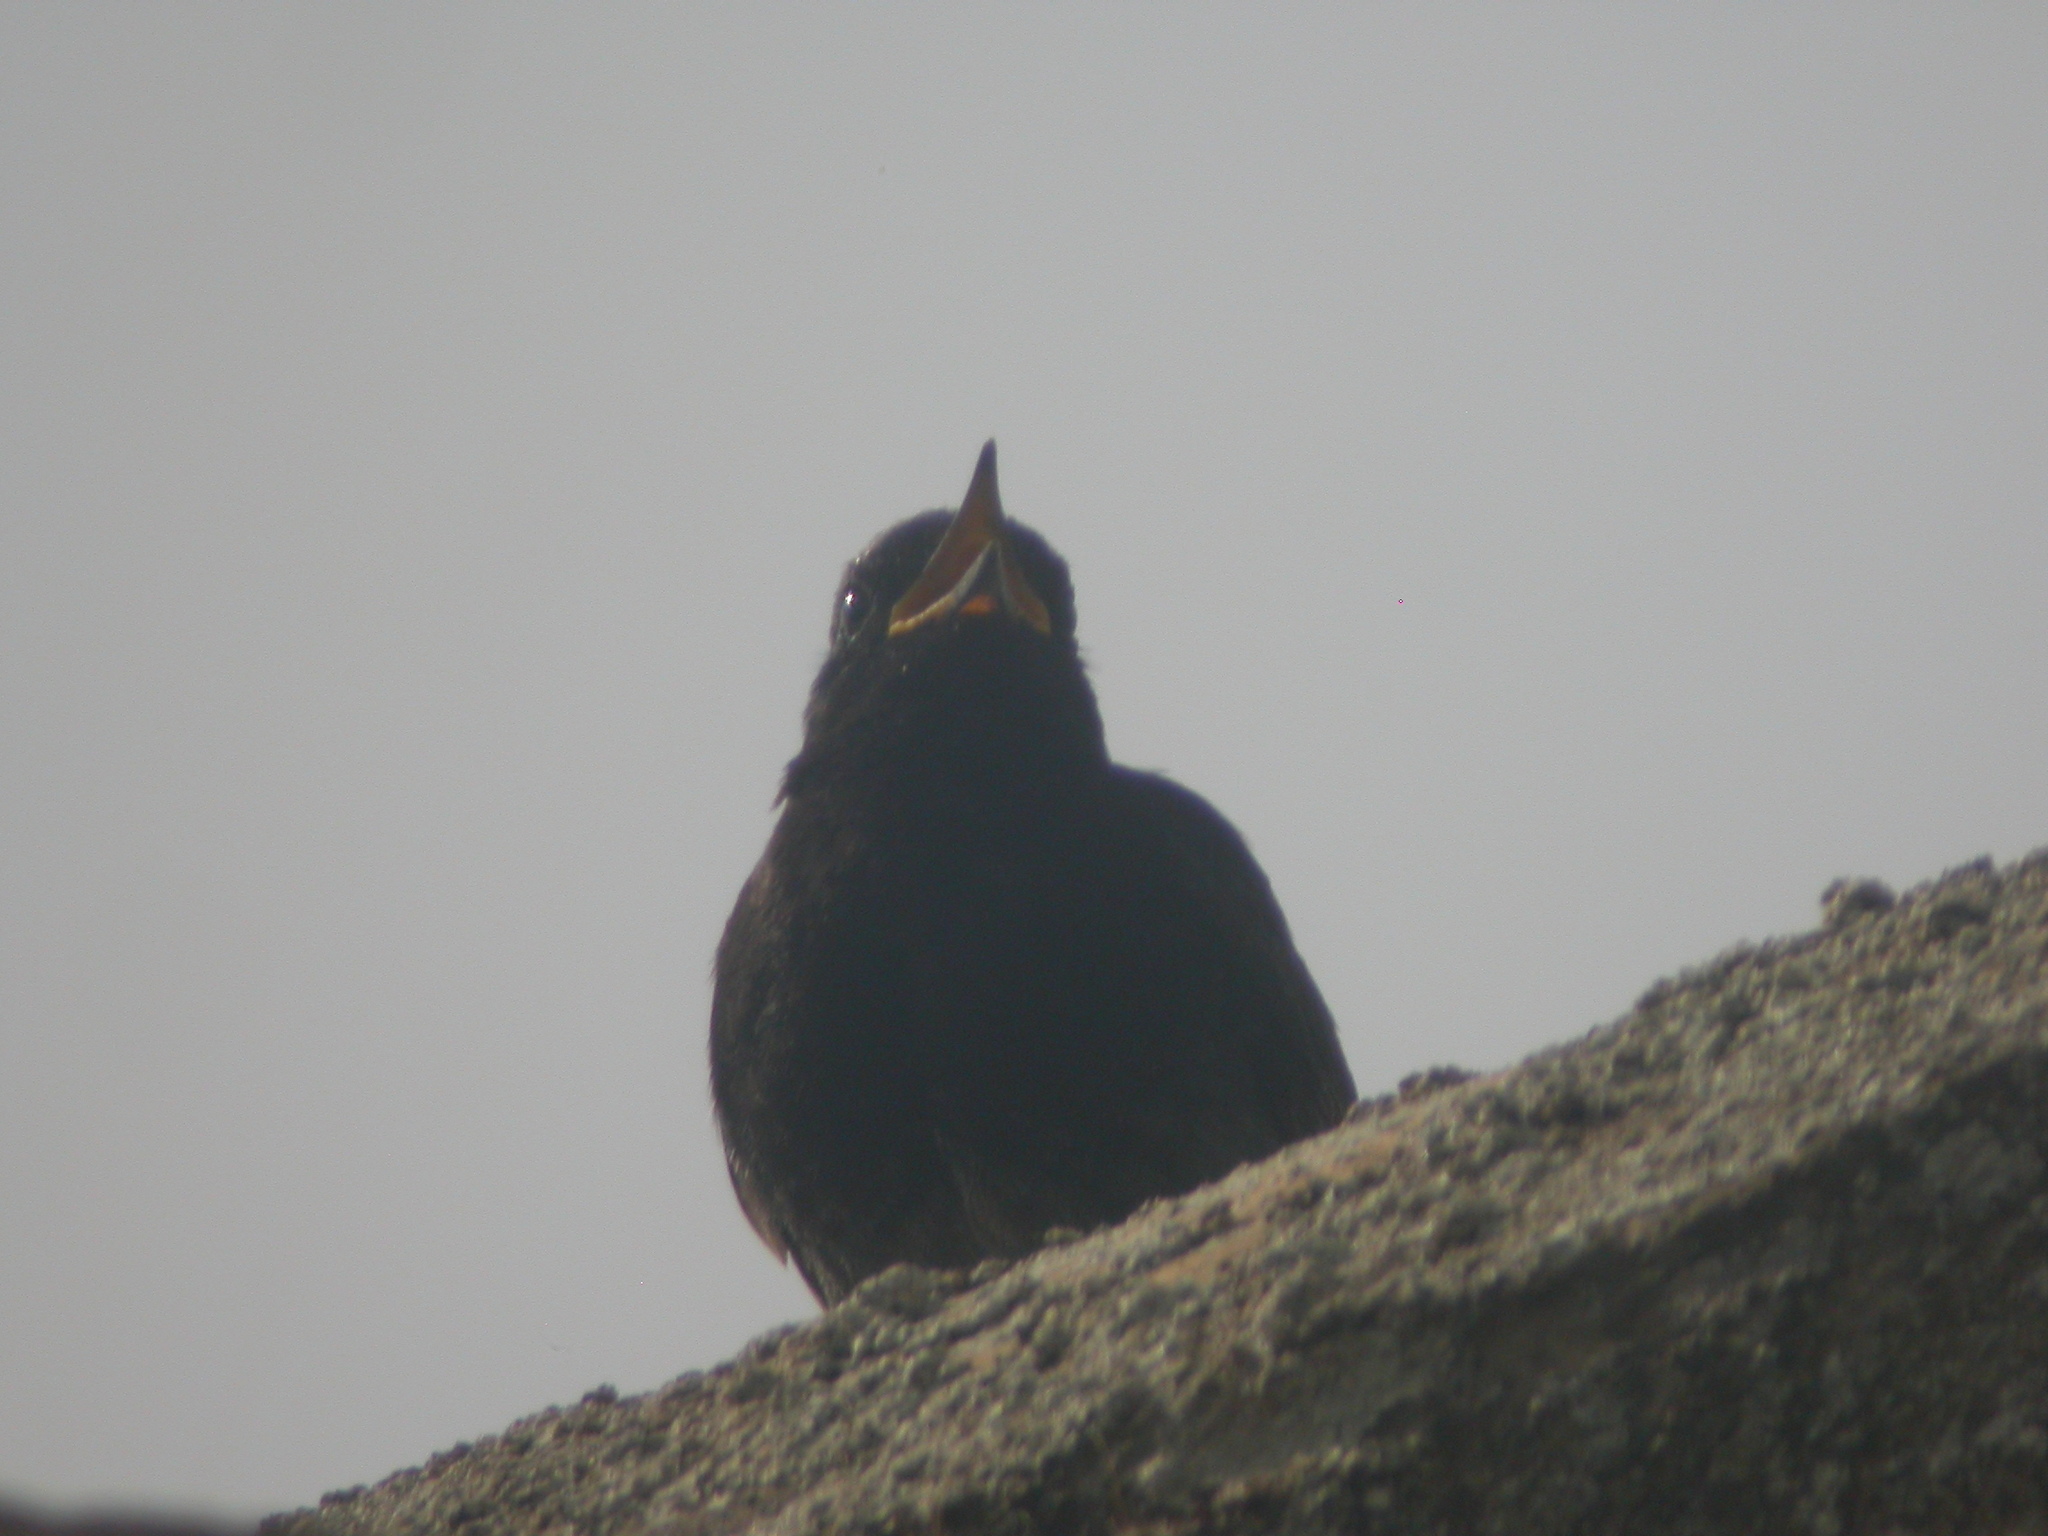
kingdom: Animalia
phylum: Chordata
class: Aves
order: Passeriformes
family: Muscicapidae
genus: Phoenicurus
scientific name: Phoenicurus ochruros
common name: Black redstart
